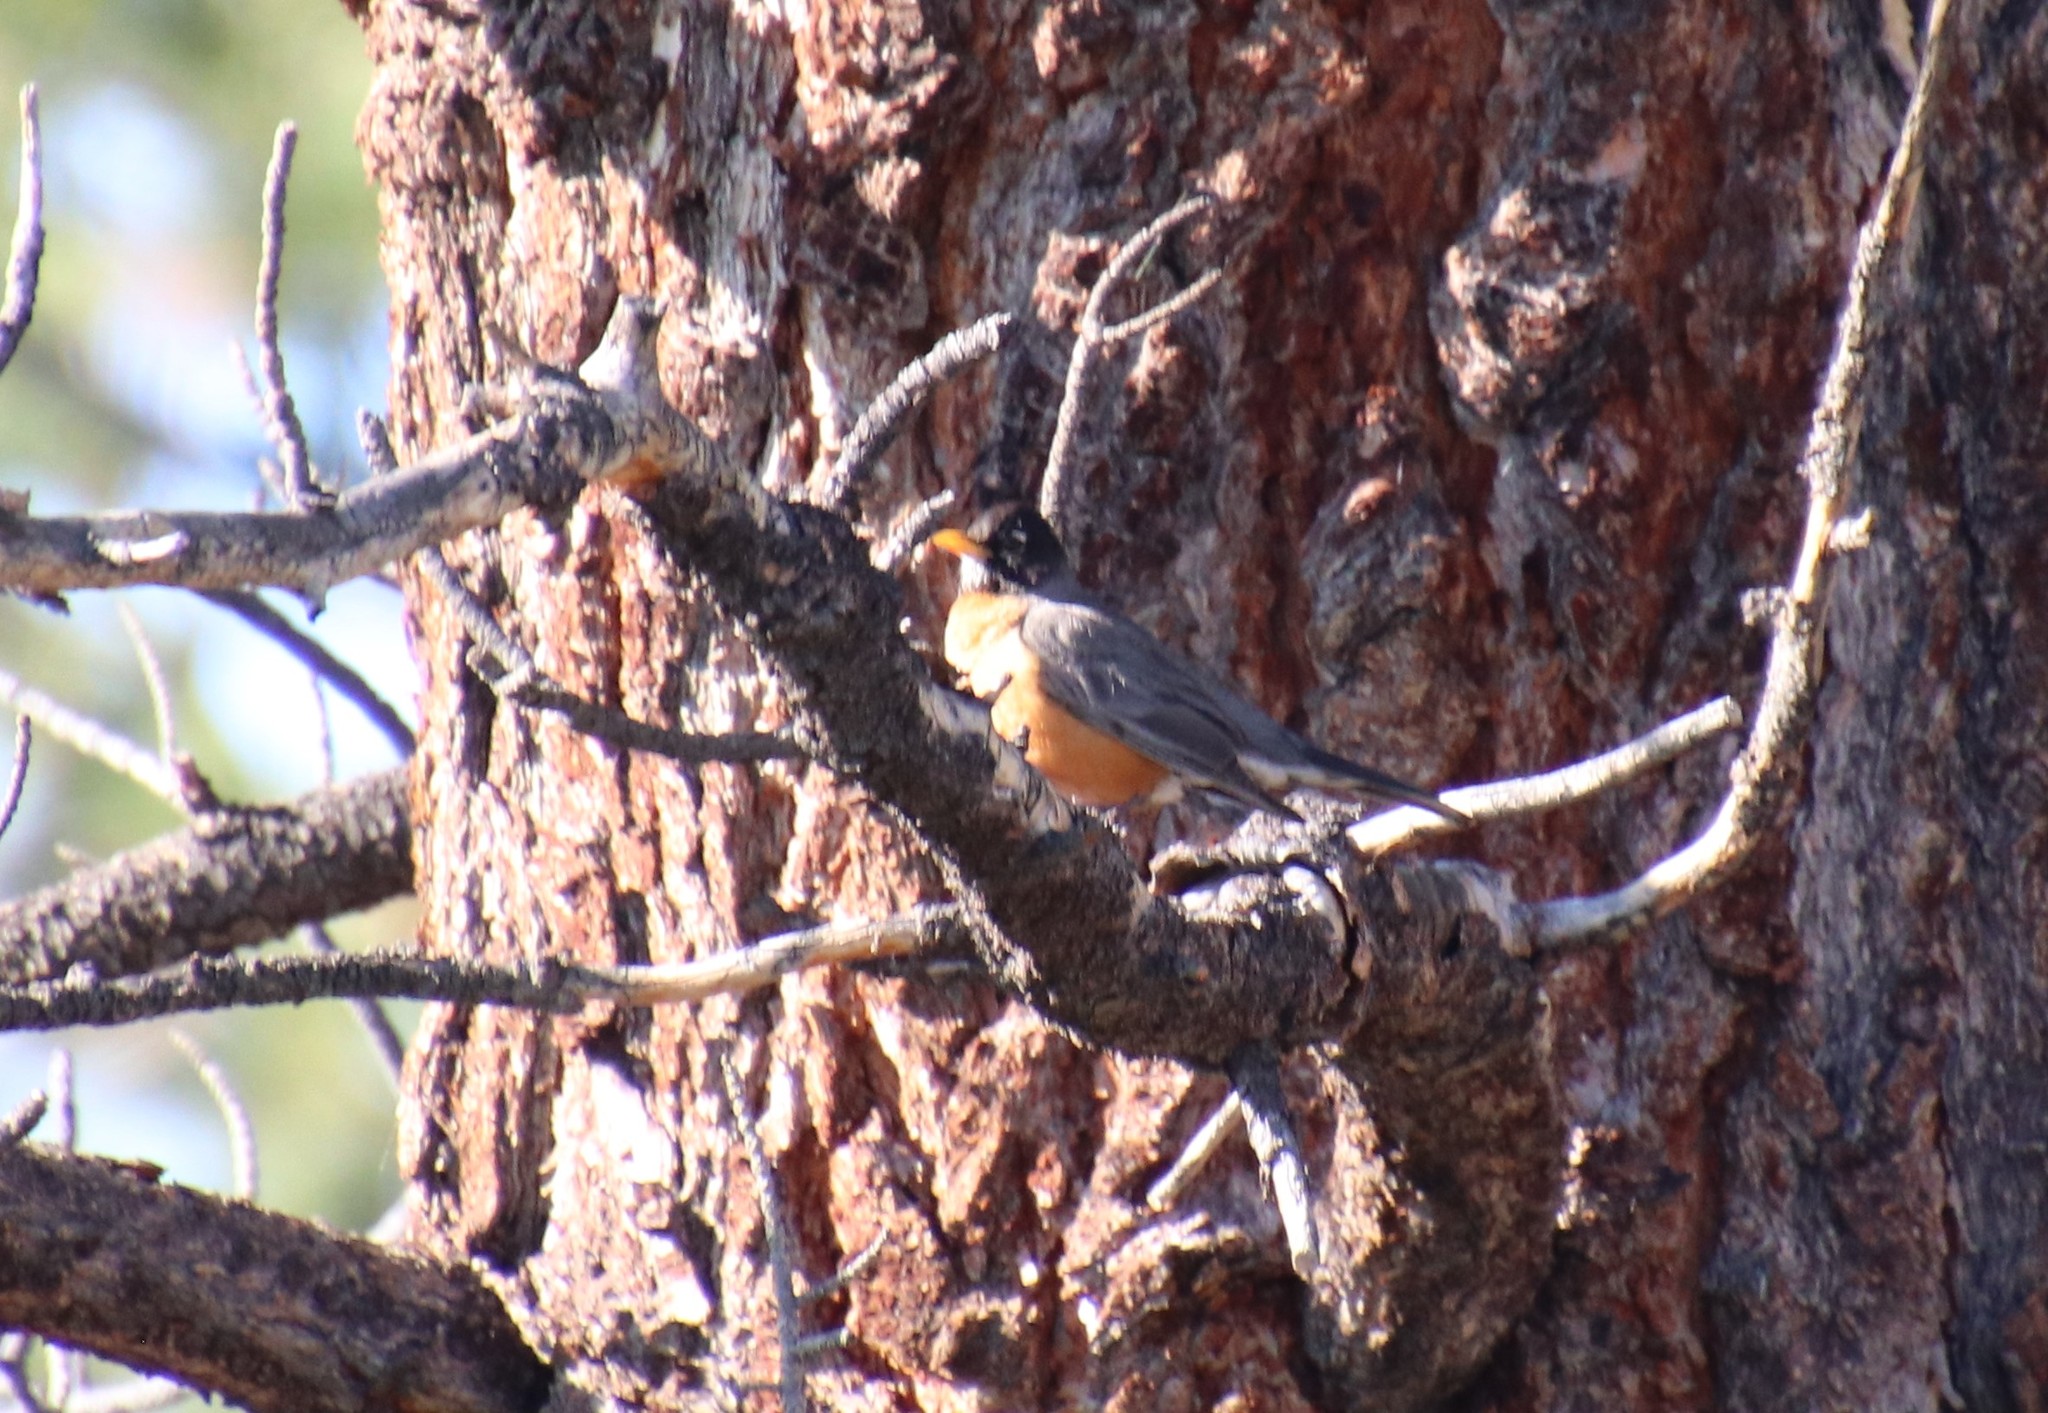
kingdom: Animalia
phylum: Chordata
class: Aves
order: Passeriformes
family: Turdidae
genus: Turdus
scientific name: Turdus migratorius
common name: American robin
